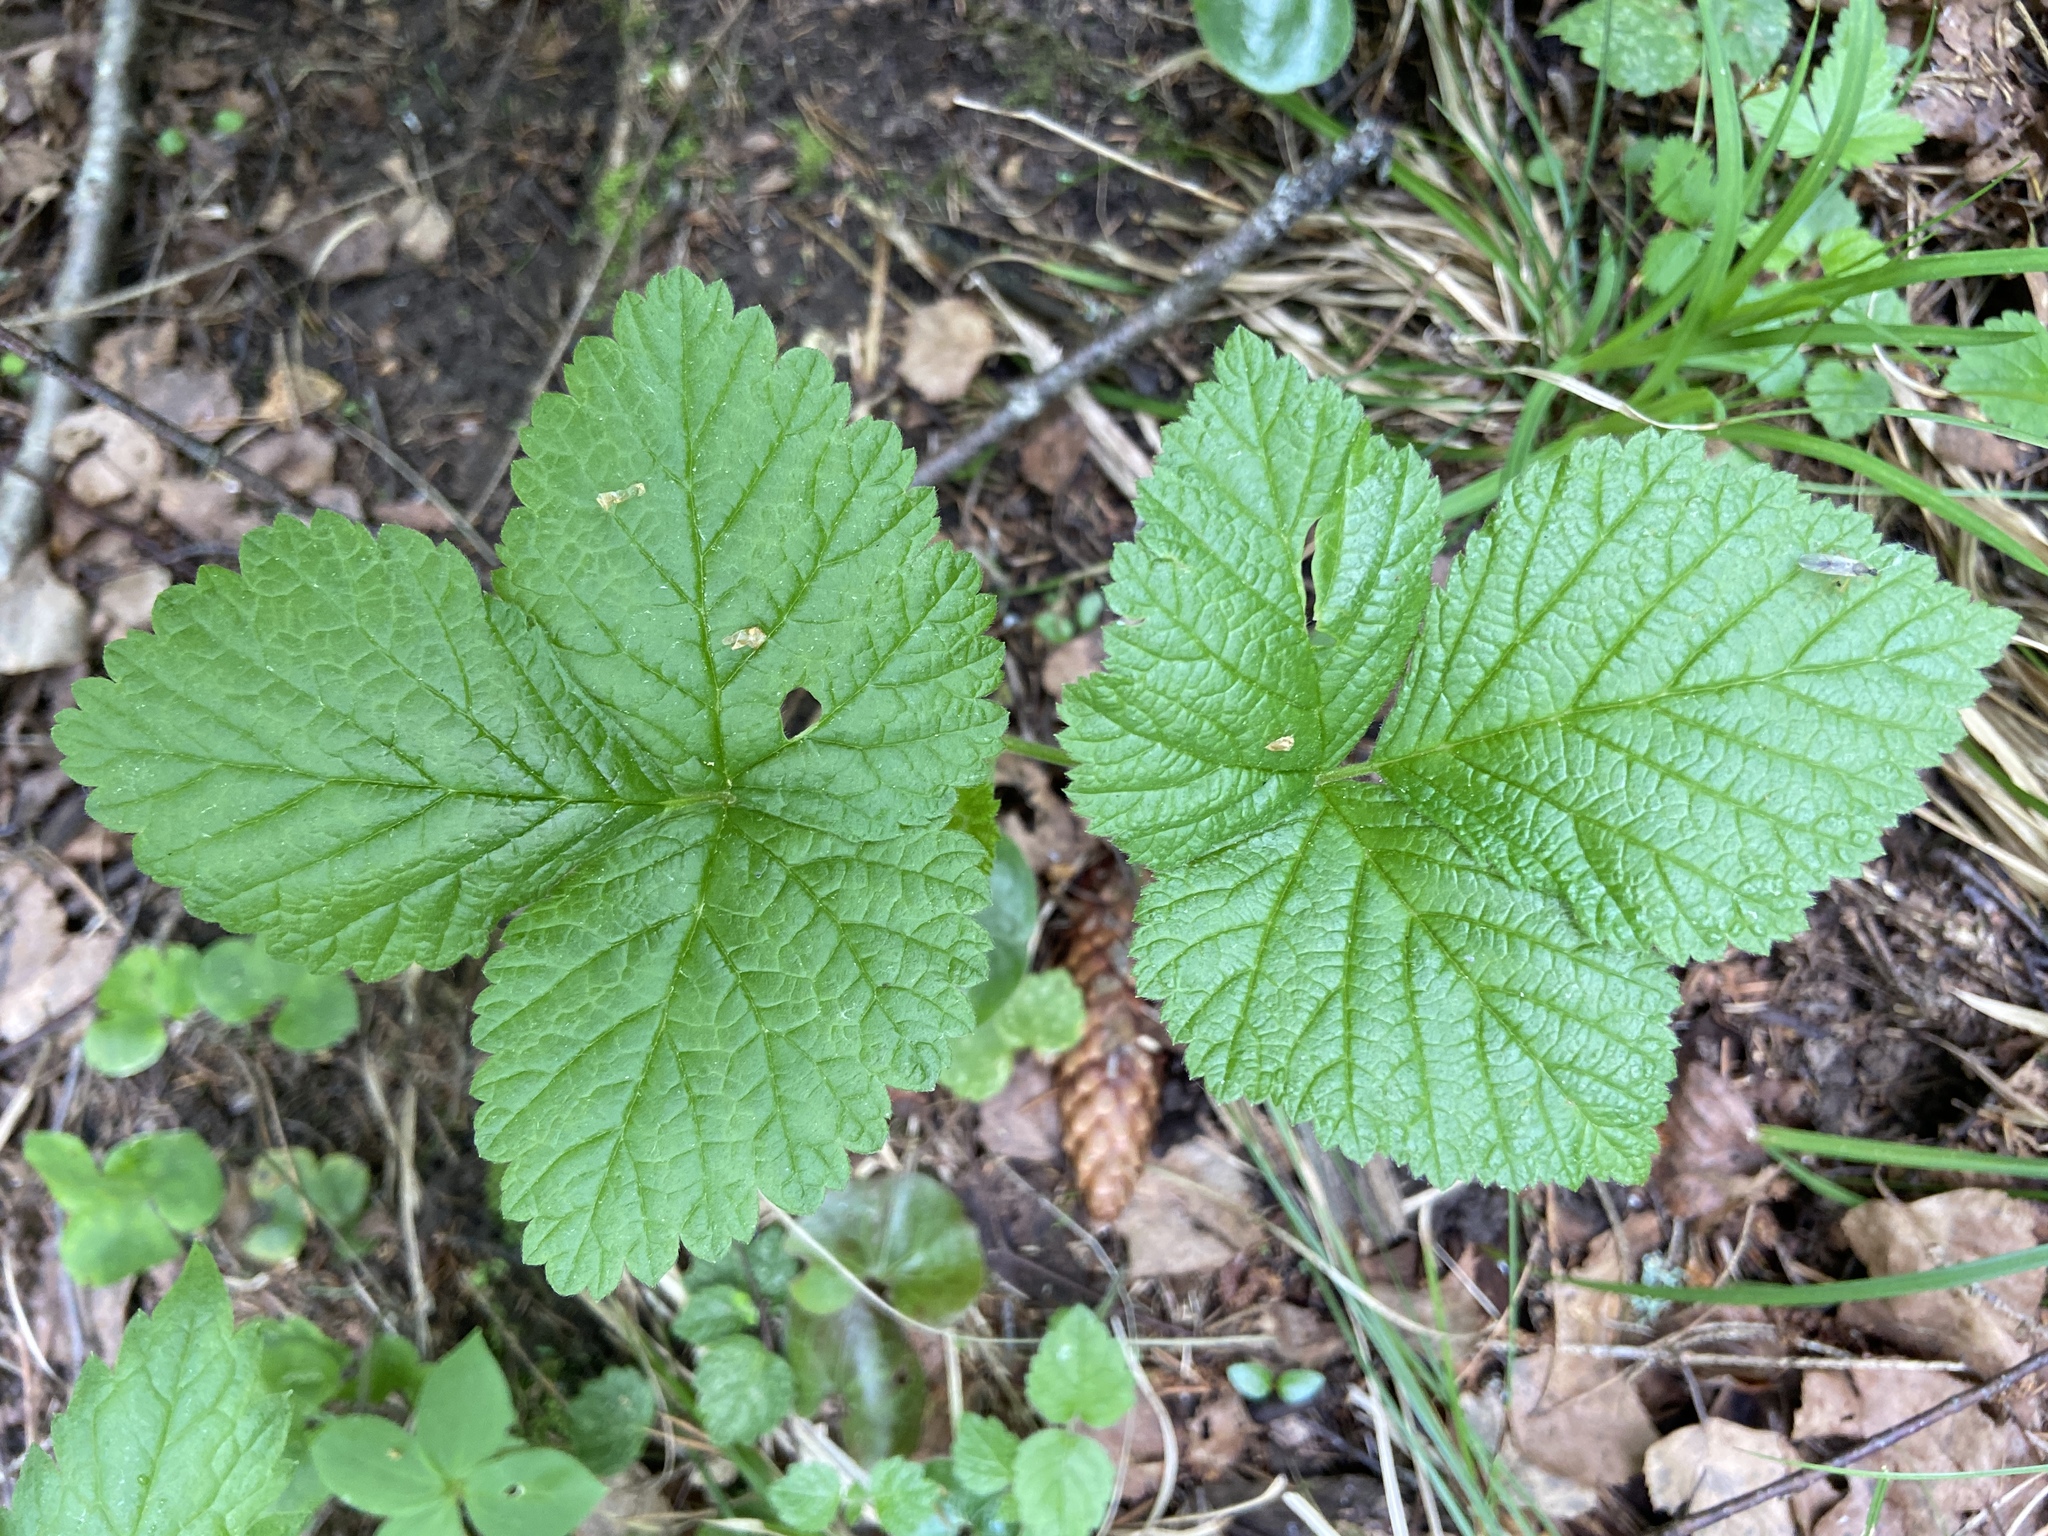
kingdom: Plantae
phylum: Tracheophyta
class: Magnoliopsida
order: Rosales
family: Rosaceae
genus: Rubus
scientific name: Rubus saxatilis
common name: Stone bramble
